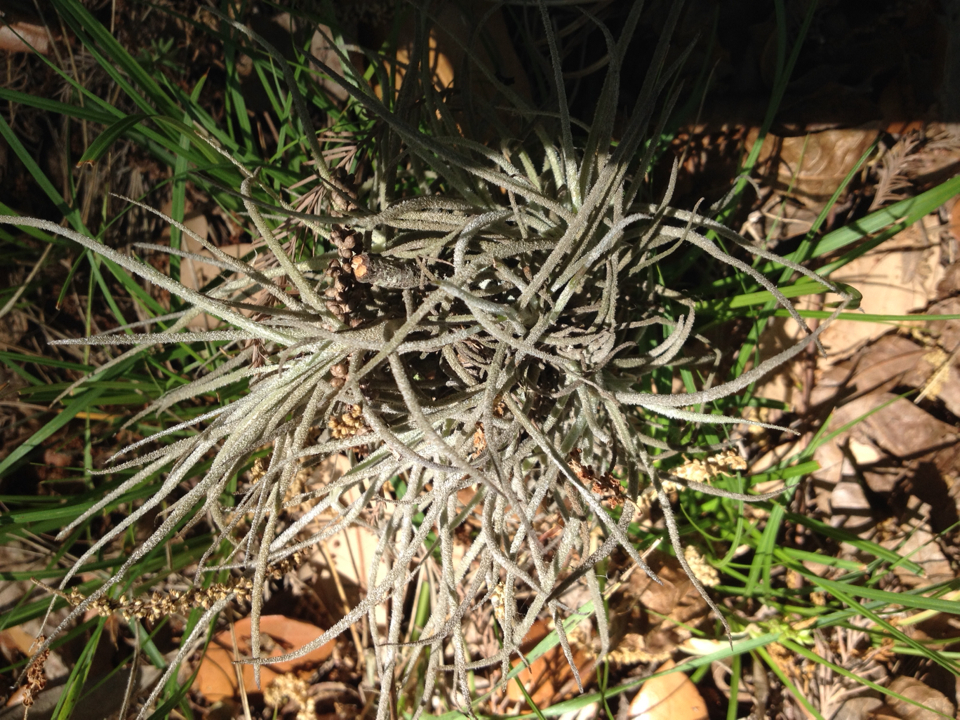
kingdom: Plantae
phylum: Tracheophyta
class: Liliopsida
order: Poales
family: Bromeliaceae
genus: Tillandsia
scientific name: Tillandsia recurvata
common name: Small ballmoss
